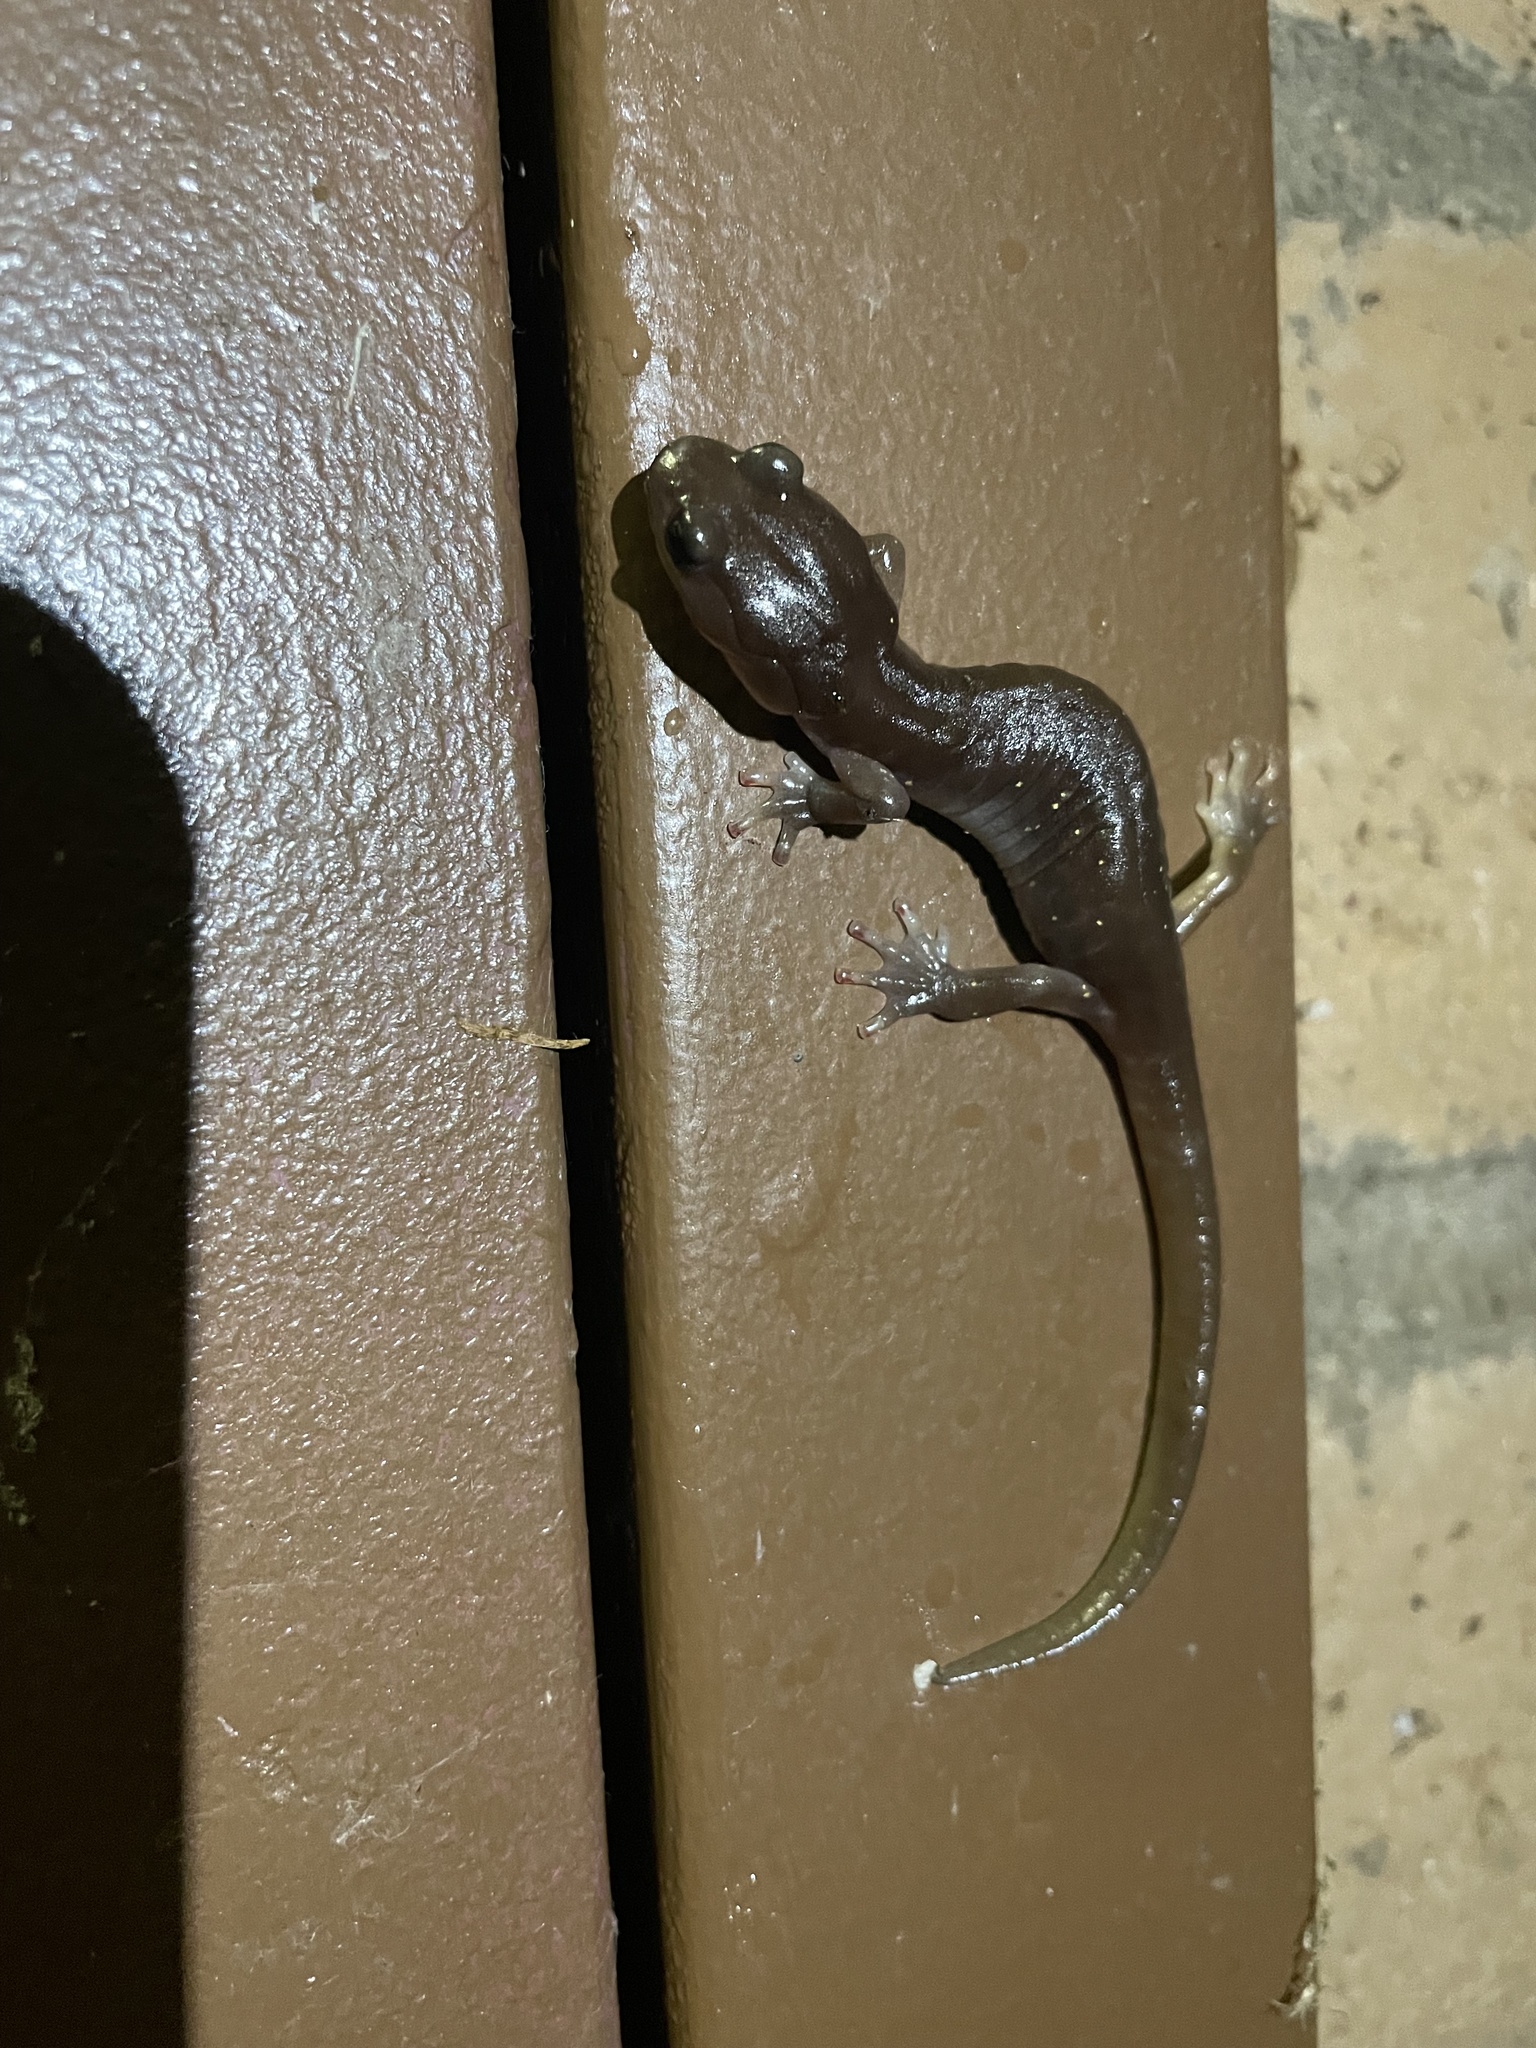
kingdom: Animalia
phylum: Chordata
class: Amphibia
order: Caudata
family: Plethodontidae
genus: Aneides
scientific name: Aneides lugubris
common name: Arboreal salamander
